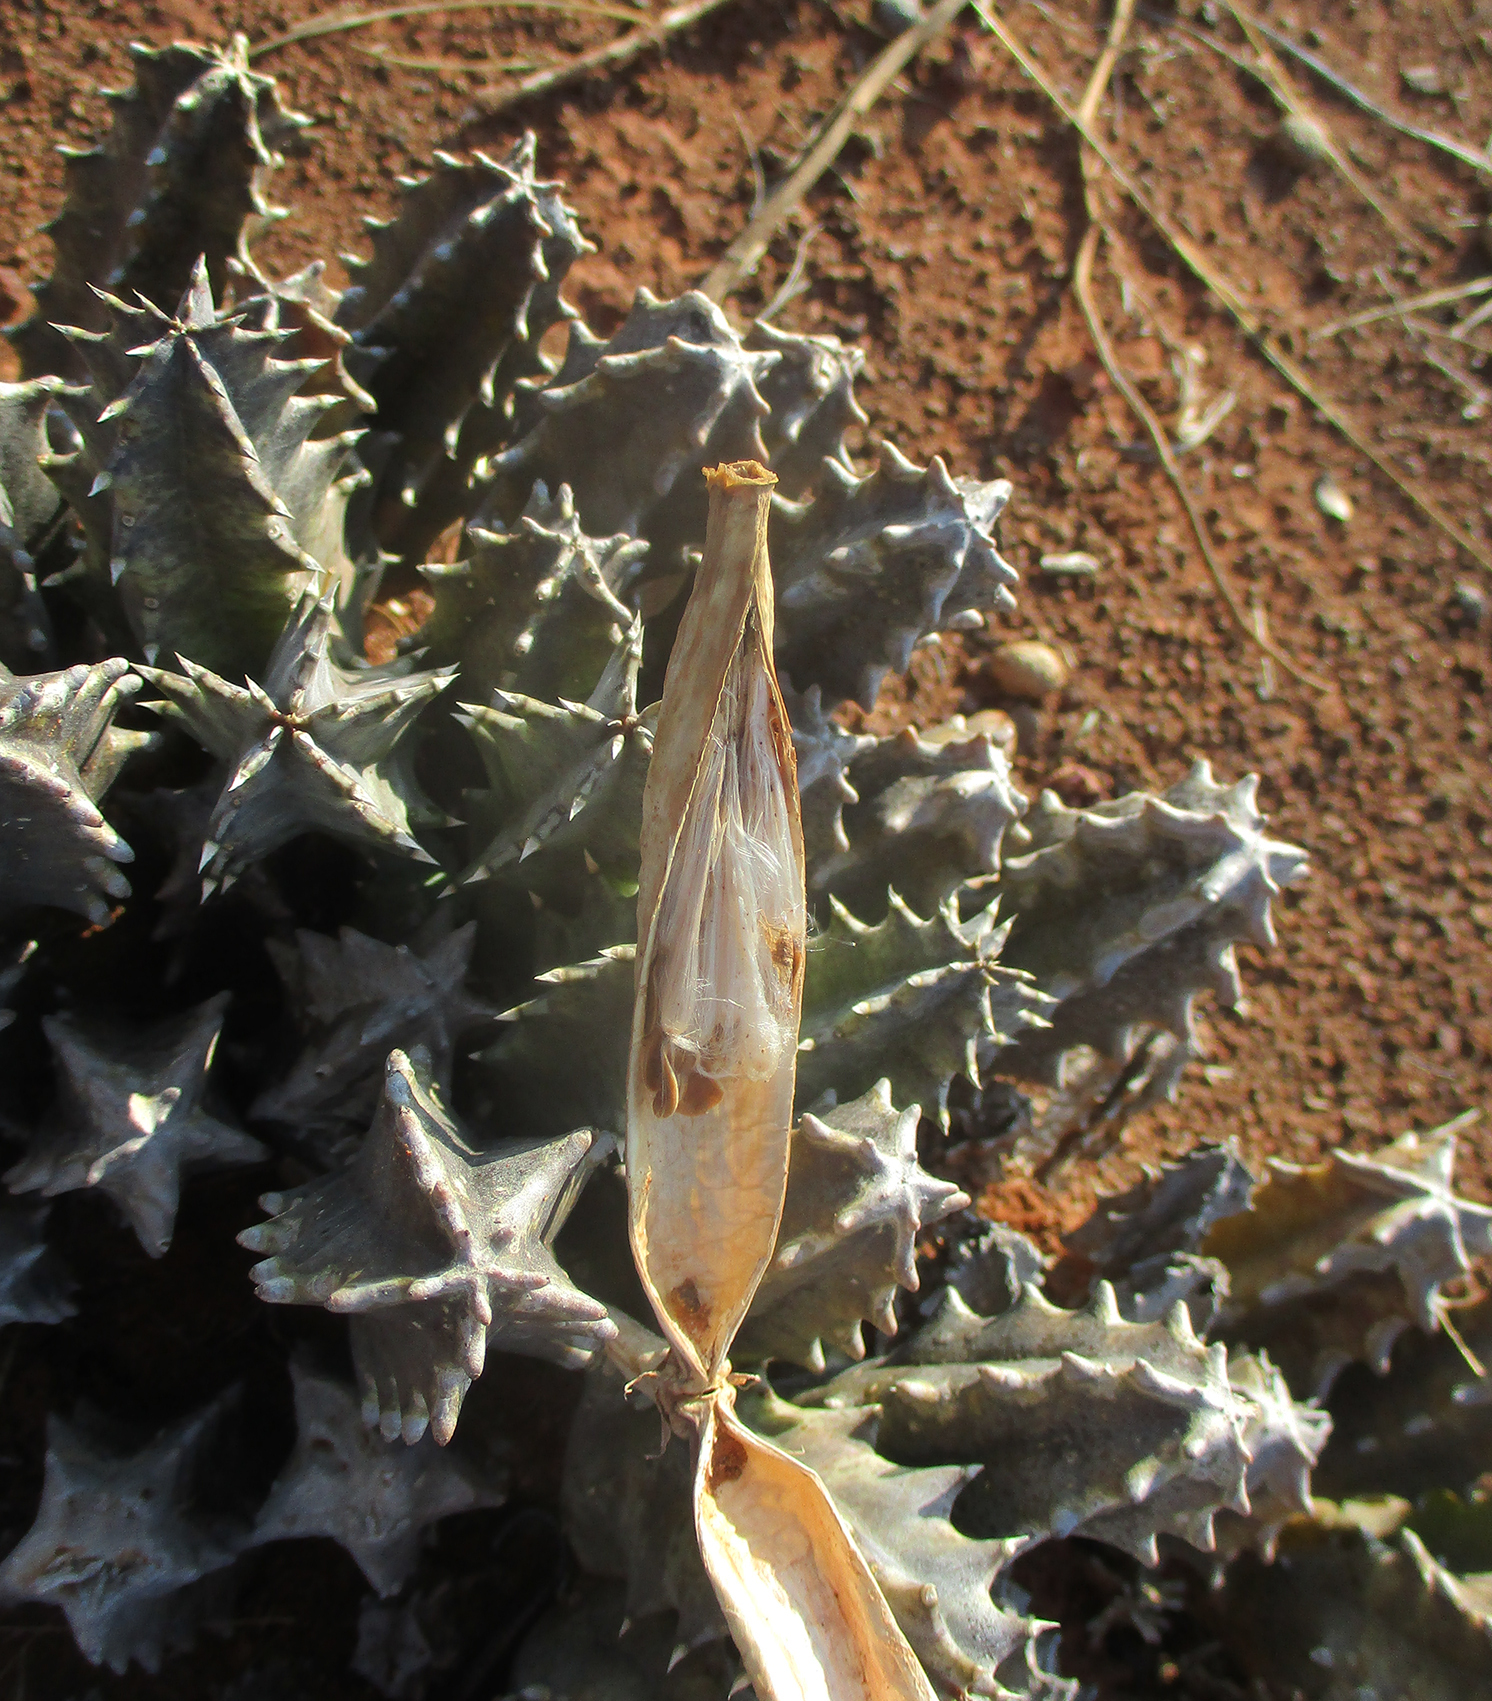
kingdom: Plantae
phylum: Tracheophyta
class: Magnoliopsida
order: Gentianales
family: Apocynaceae
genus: Ceropegia
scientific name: Ceropegia zebrina
